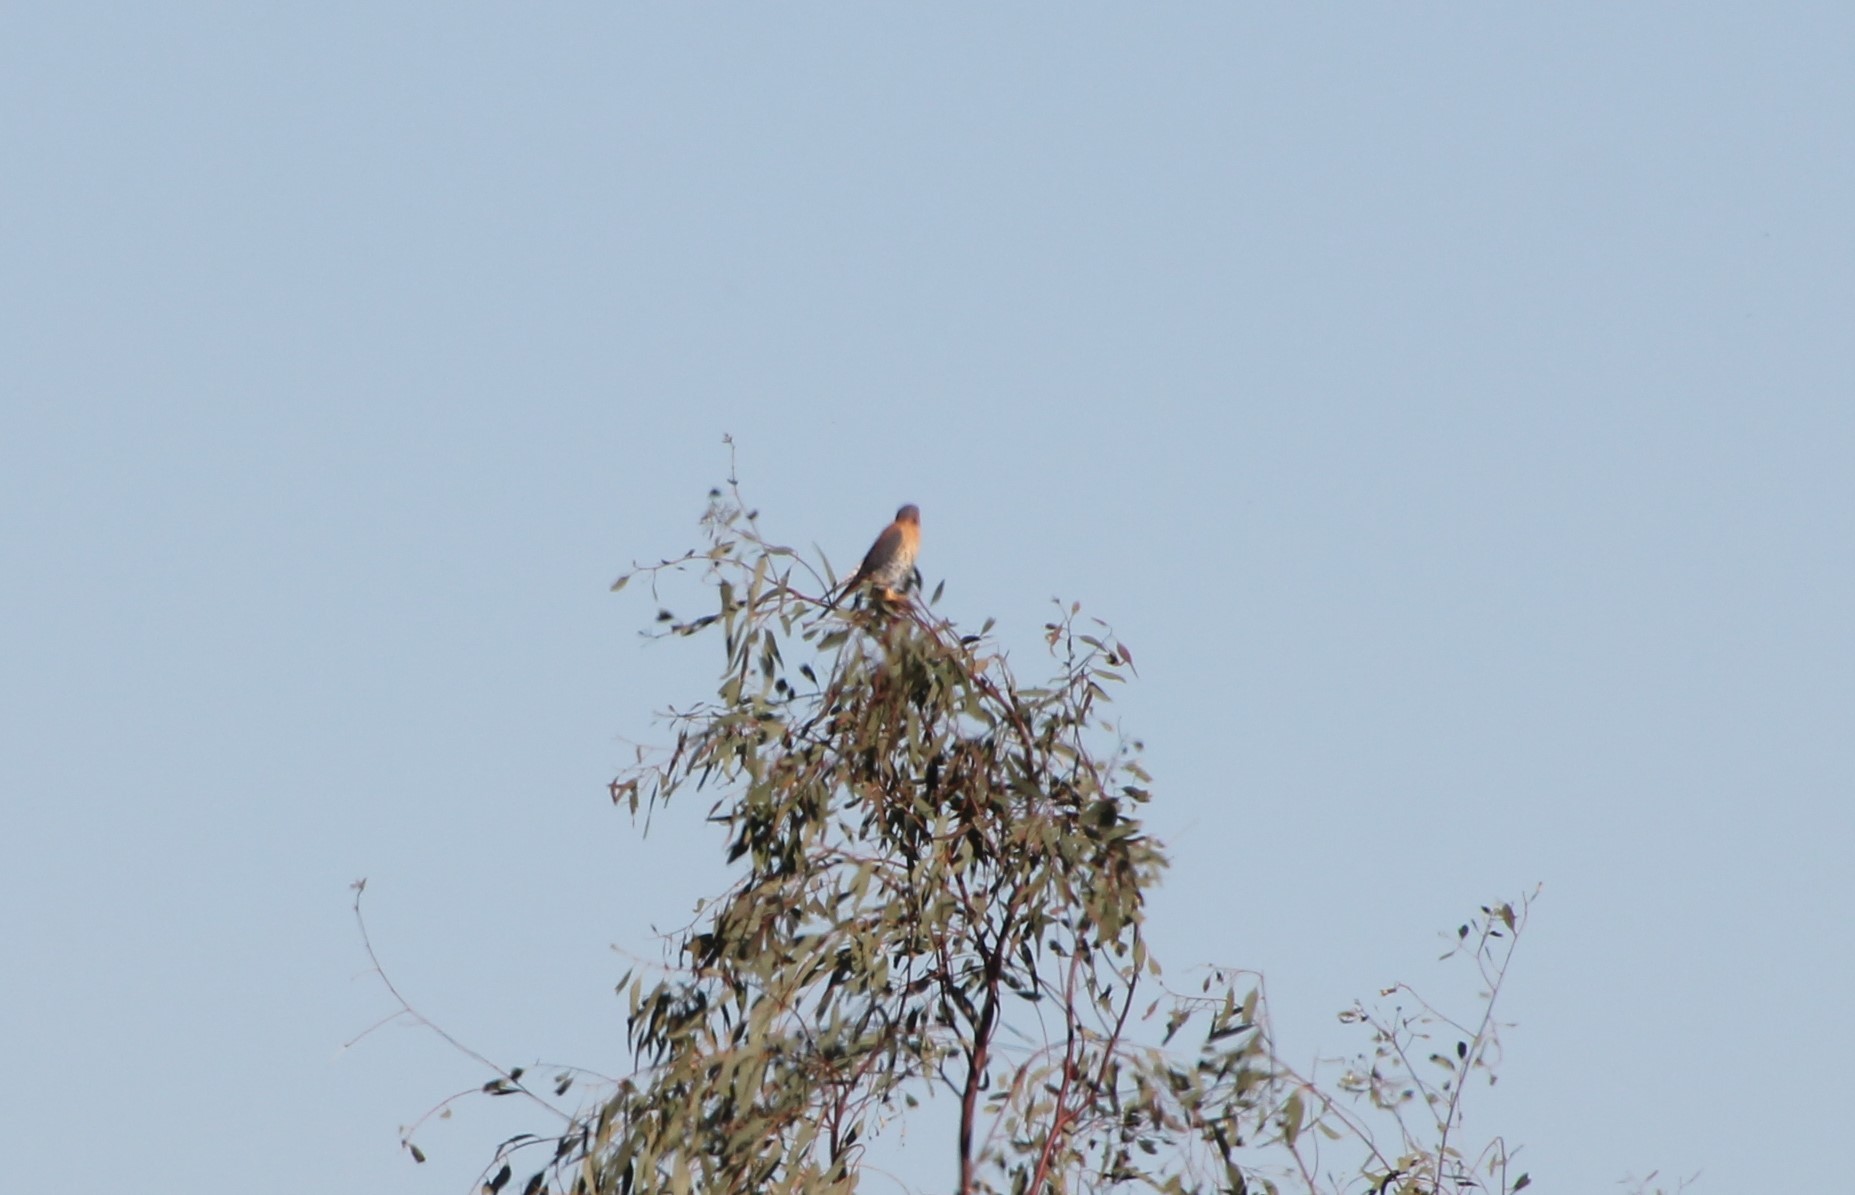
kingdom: Animalia
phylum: Chordata
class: Aves
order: Falconiformes
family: Falconidae
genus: Falco
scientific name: Falco sparverius
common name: American kestrel
